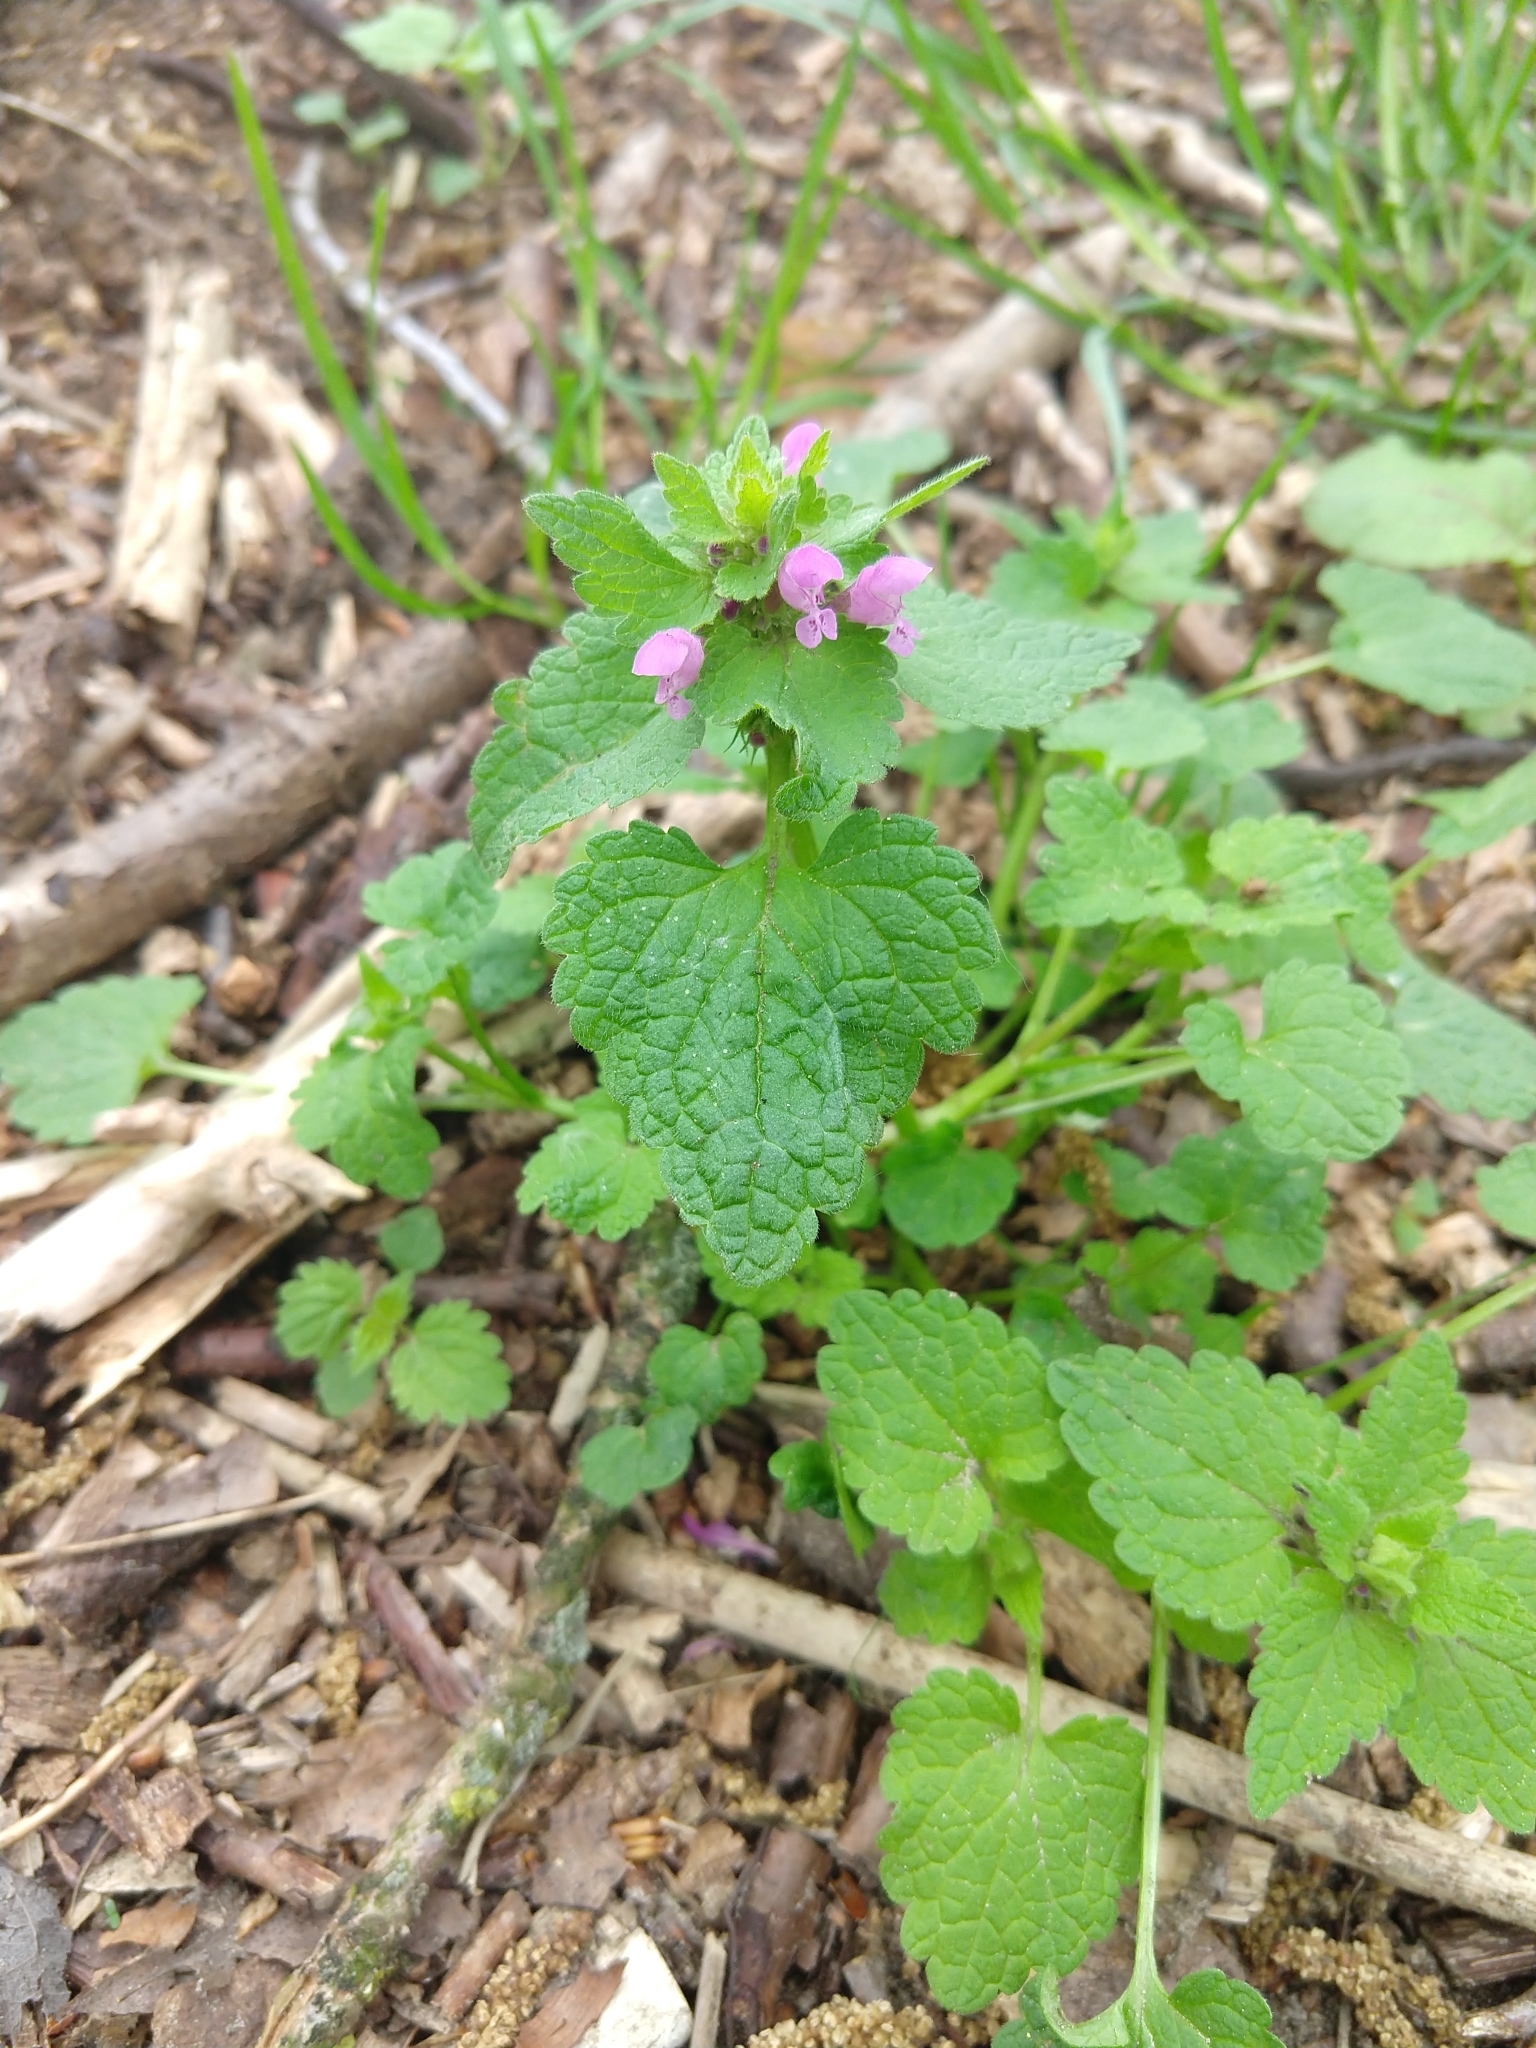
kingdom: Plantae
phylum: Tracheophyta
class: Magnoliopsida
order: Lamiales
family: Lamiaceae
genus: Lamium
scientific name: Lamium purpureum
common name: Red dead-nettle
